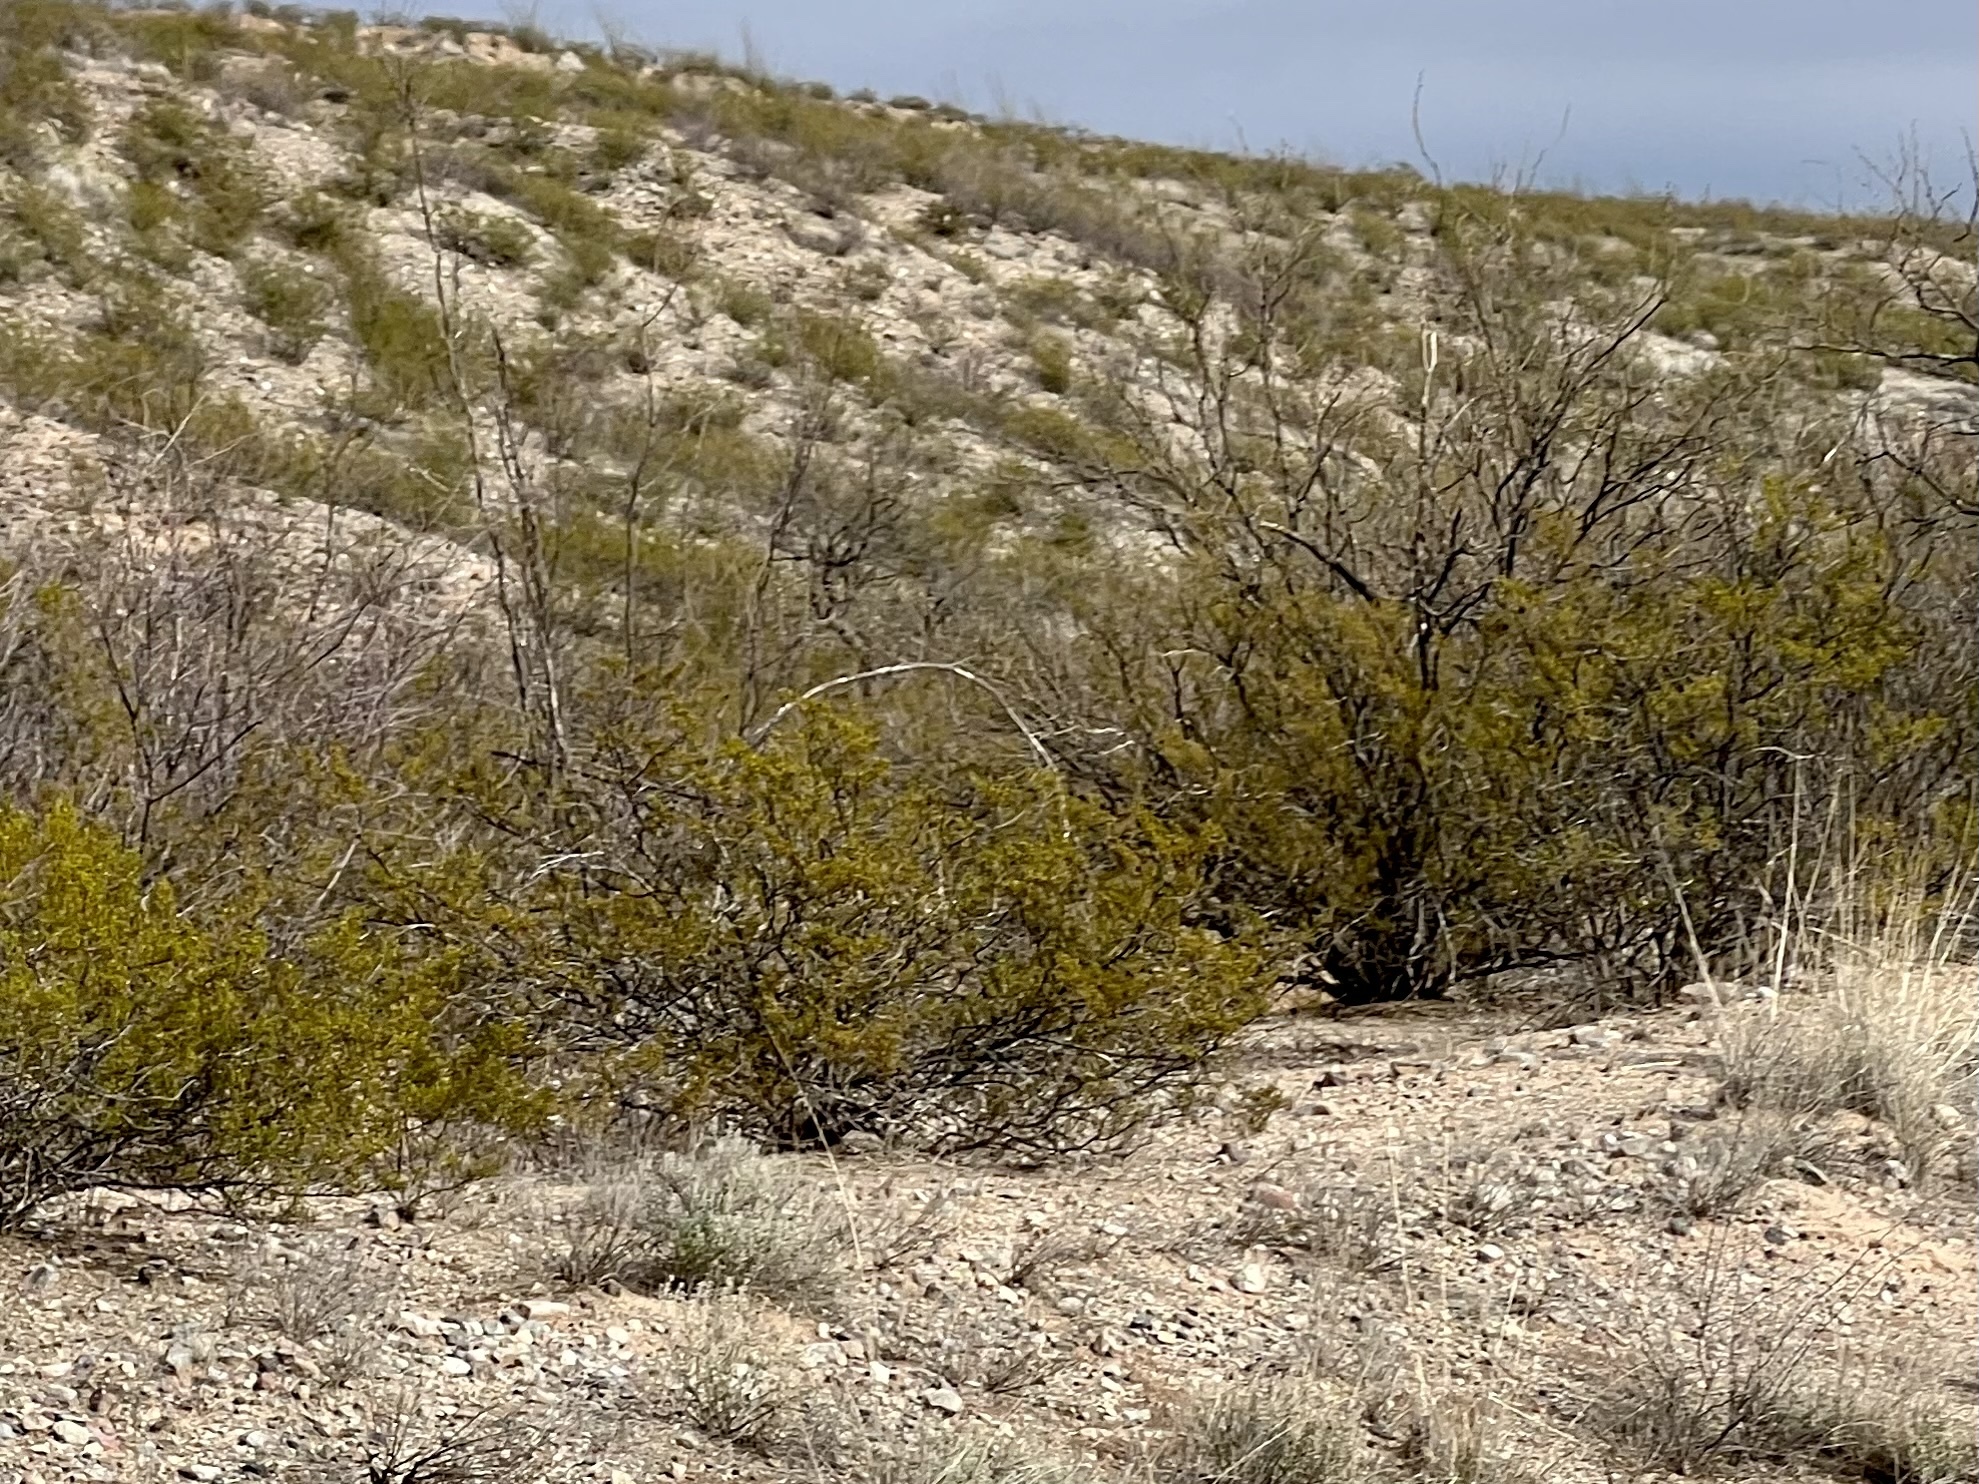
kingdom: Plantae
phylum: Tracheophyta
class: Magnoliopsida
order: Zygophyllales
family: Zygophyllaceae
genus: Larrea
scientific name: Larrea tridentata
